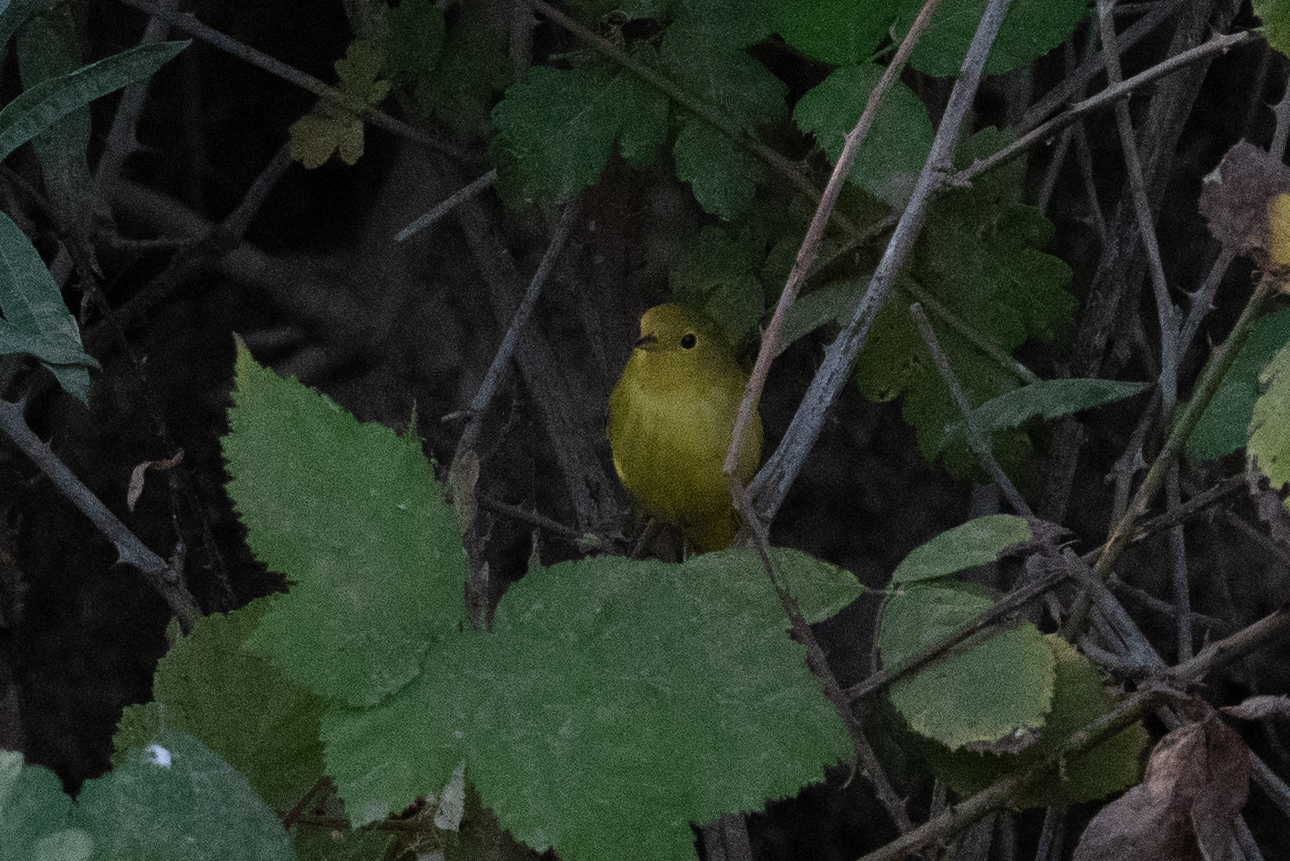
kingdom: Animalia
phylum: Chordata
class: Aves
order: Passeriformes
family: Parulidae
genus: Setophaga
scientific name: Setophaga petechia
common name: Yellow warbler
